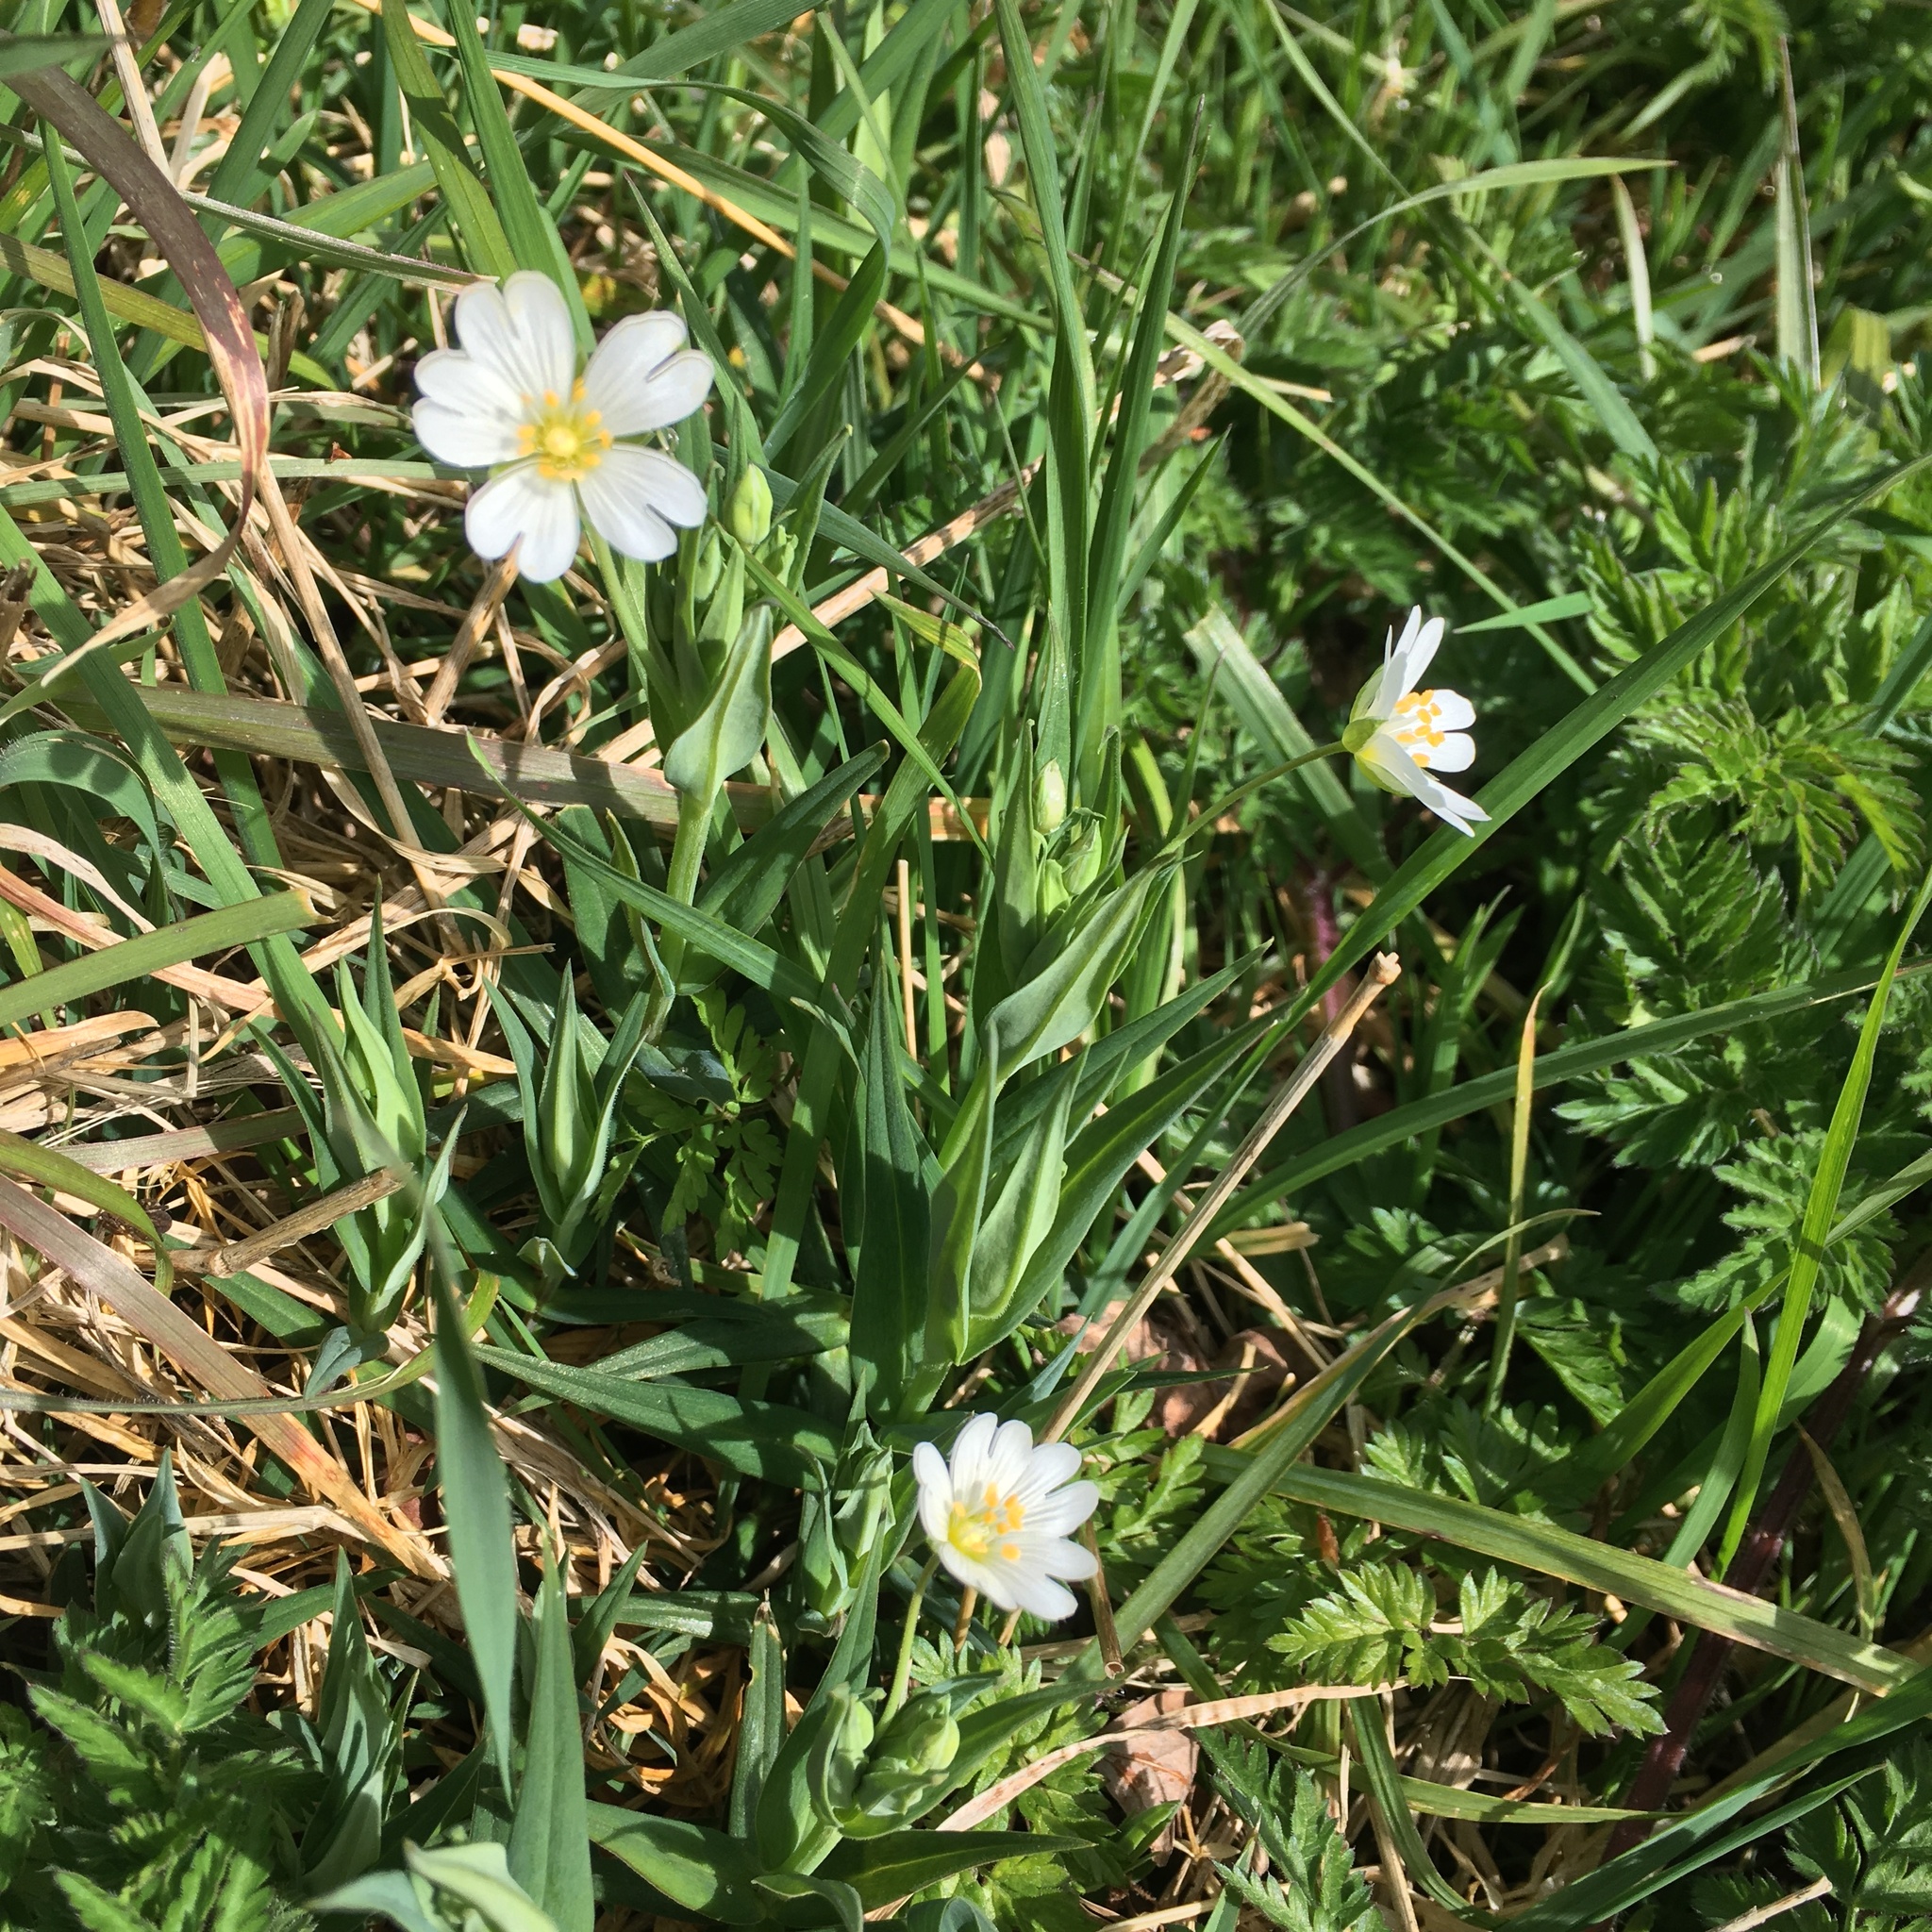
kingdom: Plantae
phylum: Tracheophyta
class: Magnoliopsida
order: Caryophyllales
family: Caryophyllaceae
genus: Rabelera
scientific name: Rabelera holostea
